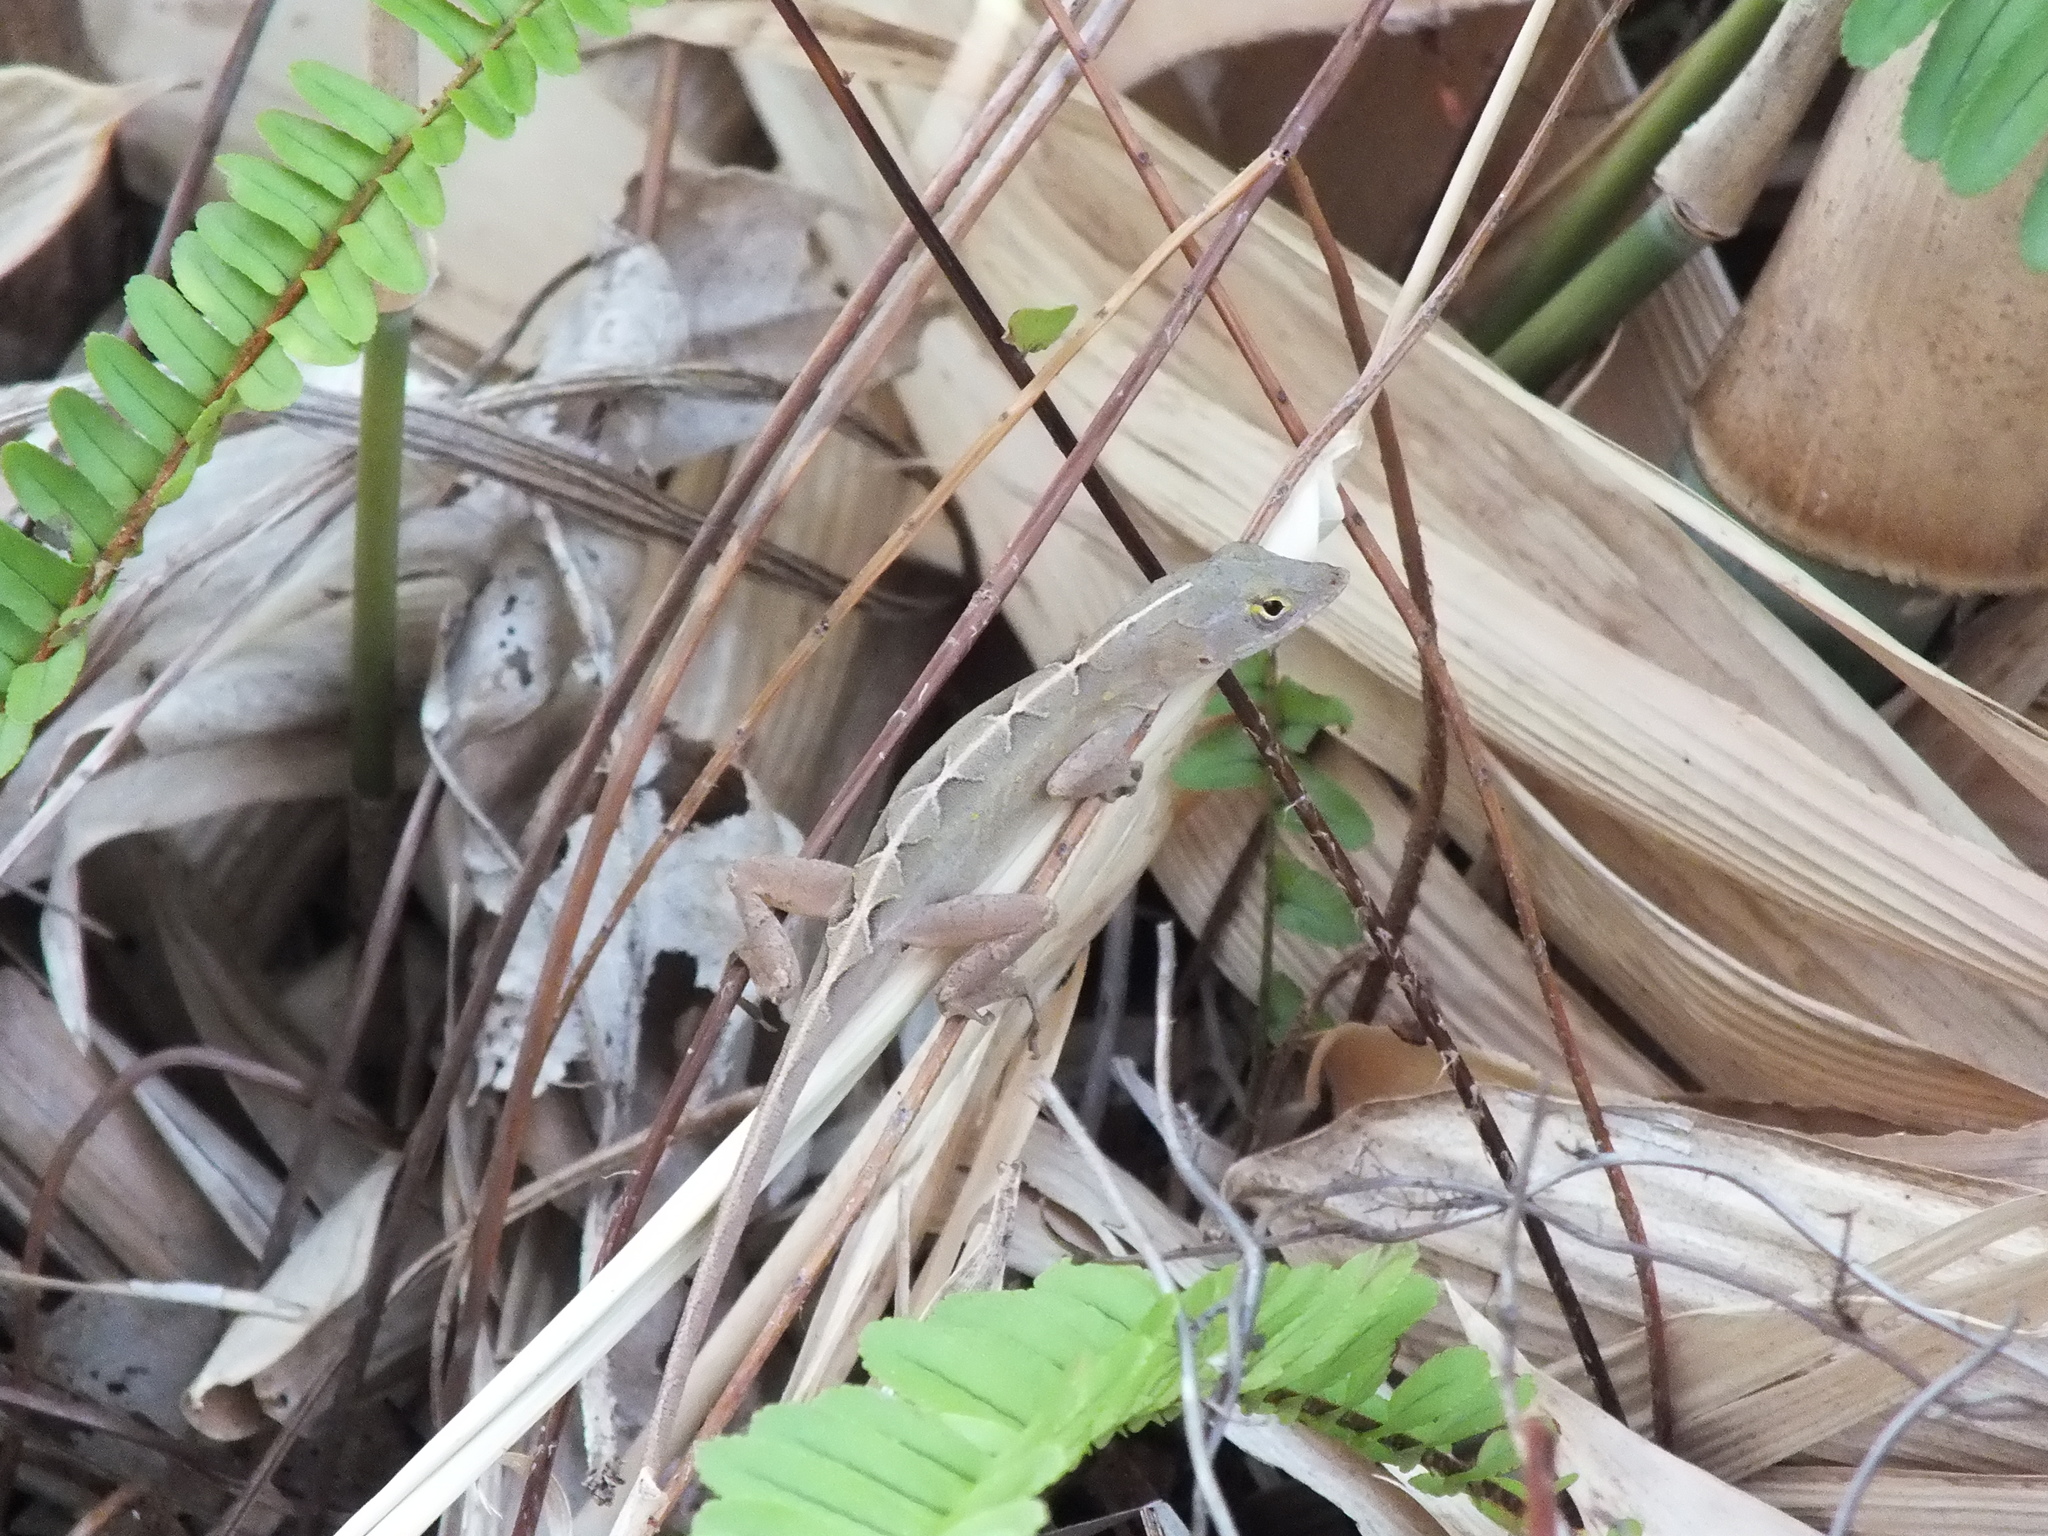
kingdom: Animalia
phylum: Chordata
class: Squamata
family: Dactyloidae
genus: Anolis
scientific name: Anolis sagrei
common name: Brown anole
